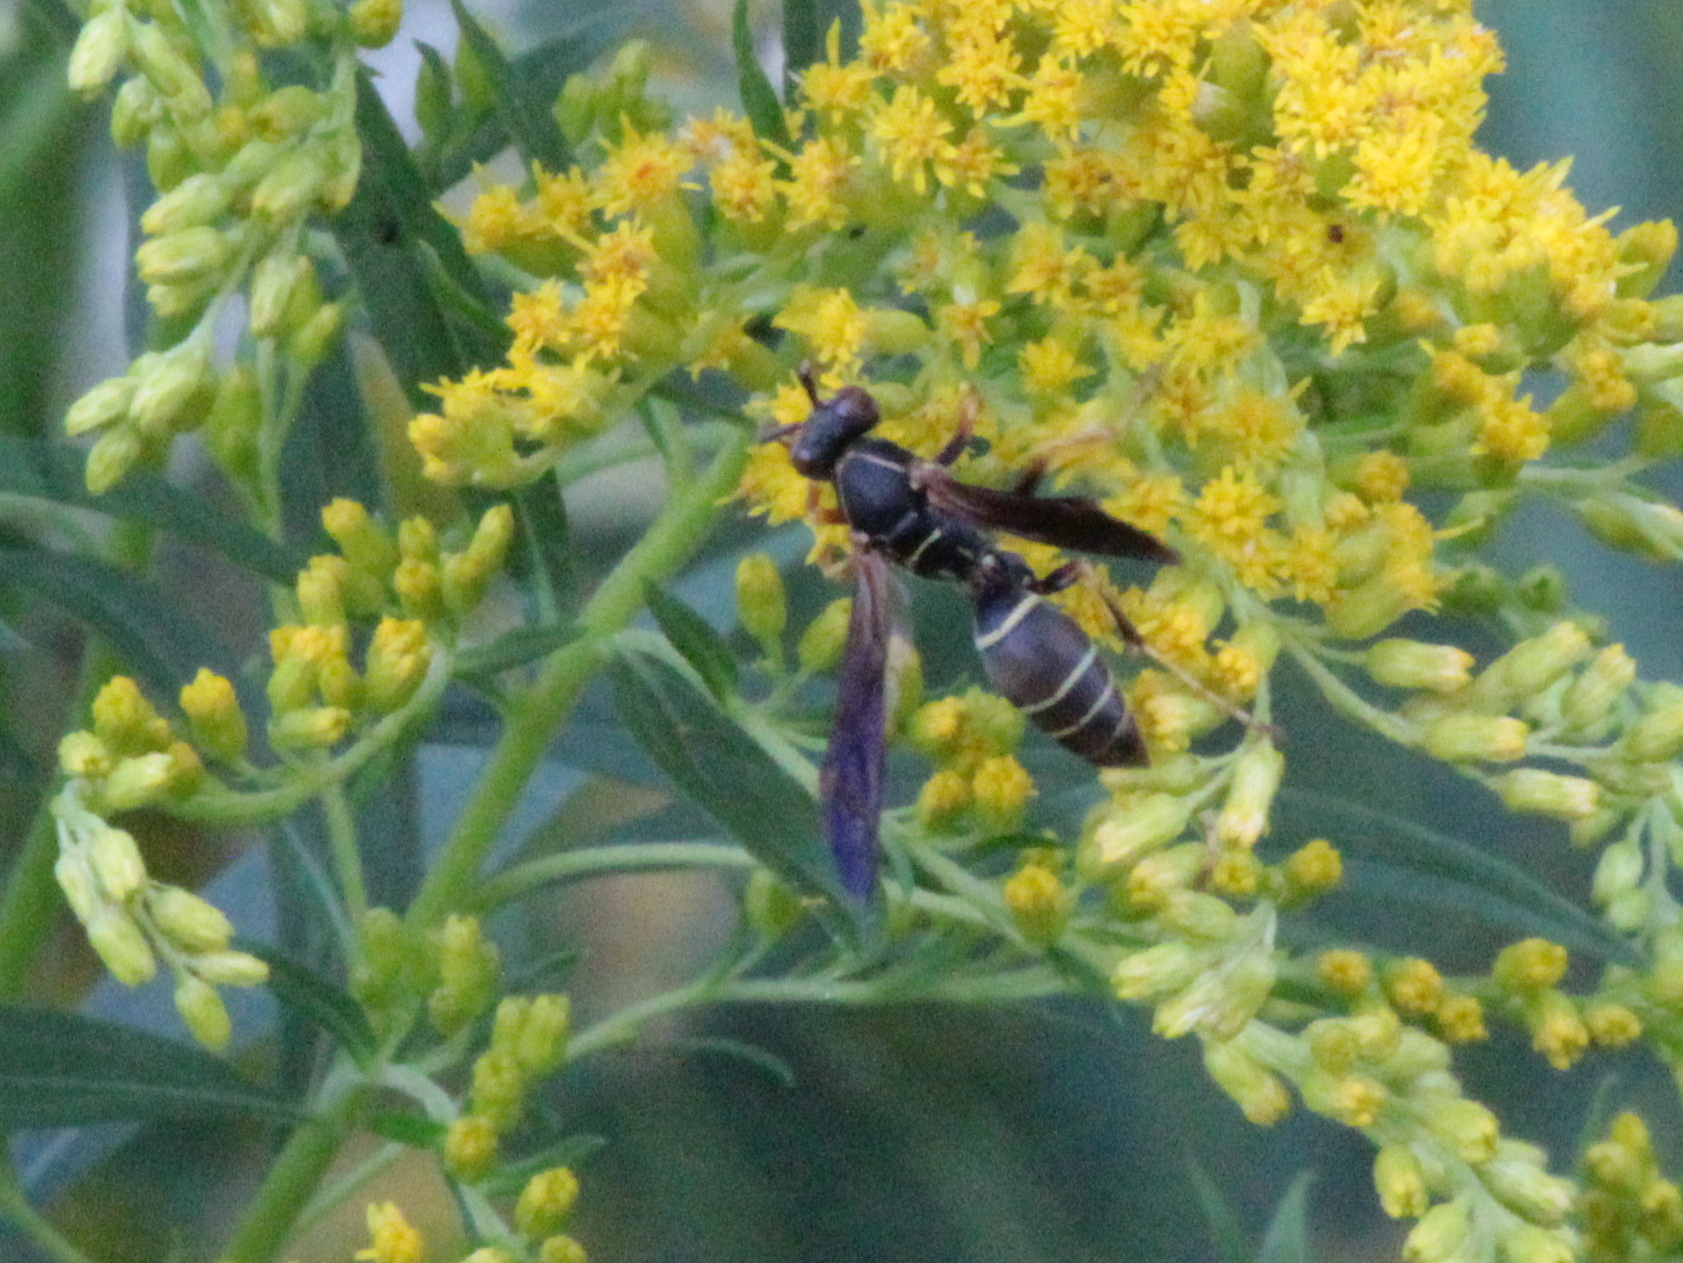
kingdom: Animalia
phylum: Arthropoda
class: Insecta
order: Hymenoptera
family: Eumenidae
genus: Polistes
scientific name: Polistes fuscatus
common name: Dark paper wasp
